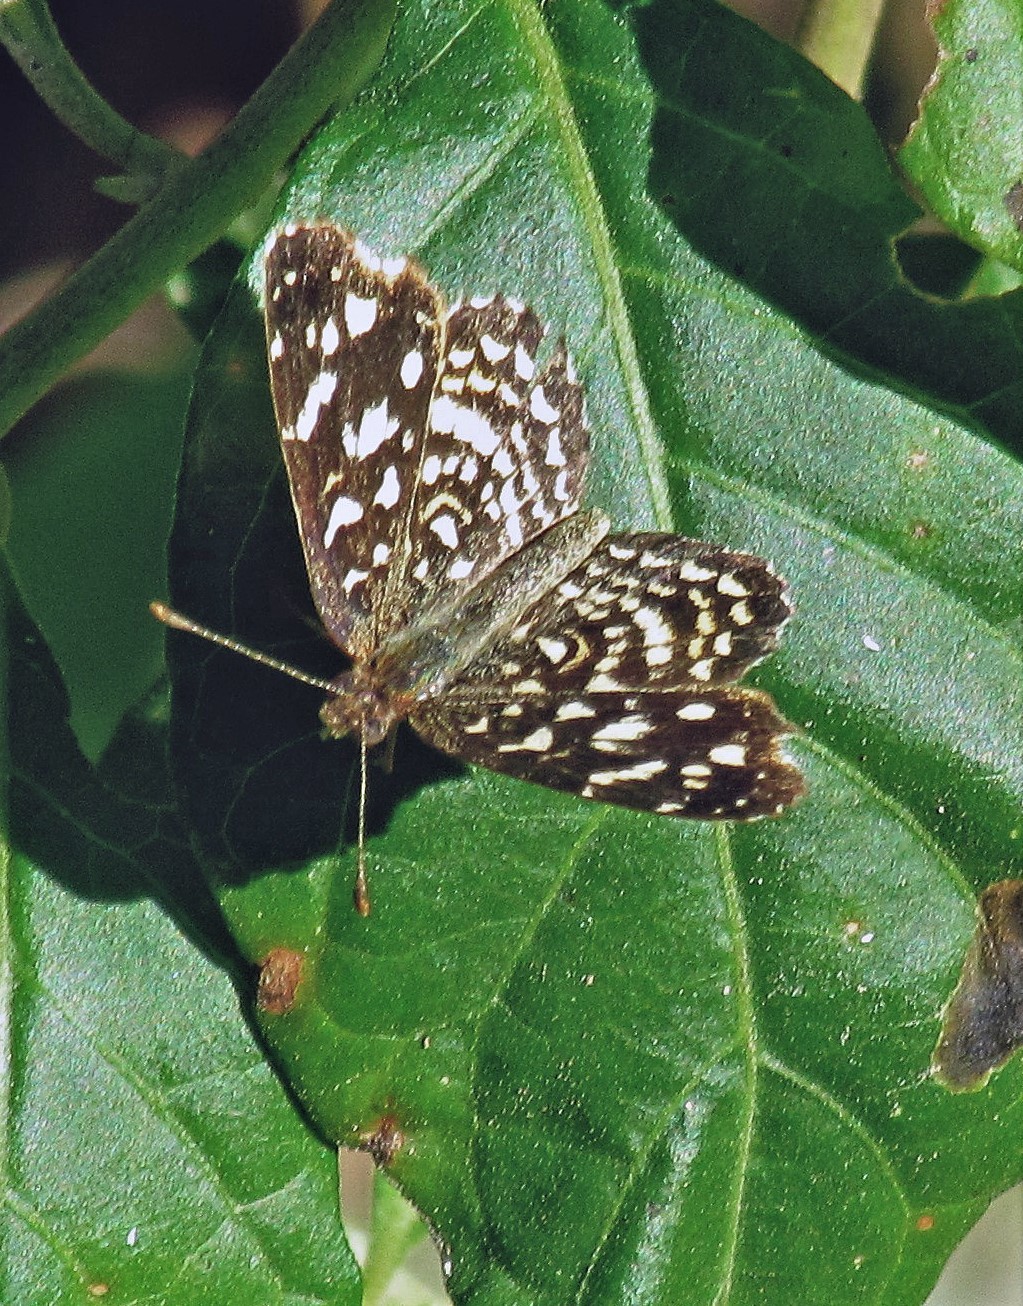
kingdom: Animalia
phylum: Arthropoda
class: Insecta
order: Lepidoptera
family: Nymphalidae
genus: Anthanassa
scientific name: Anthanassa hermas
